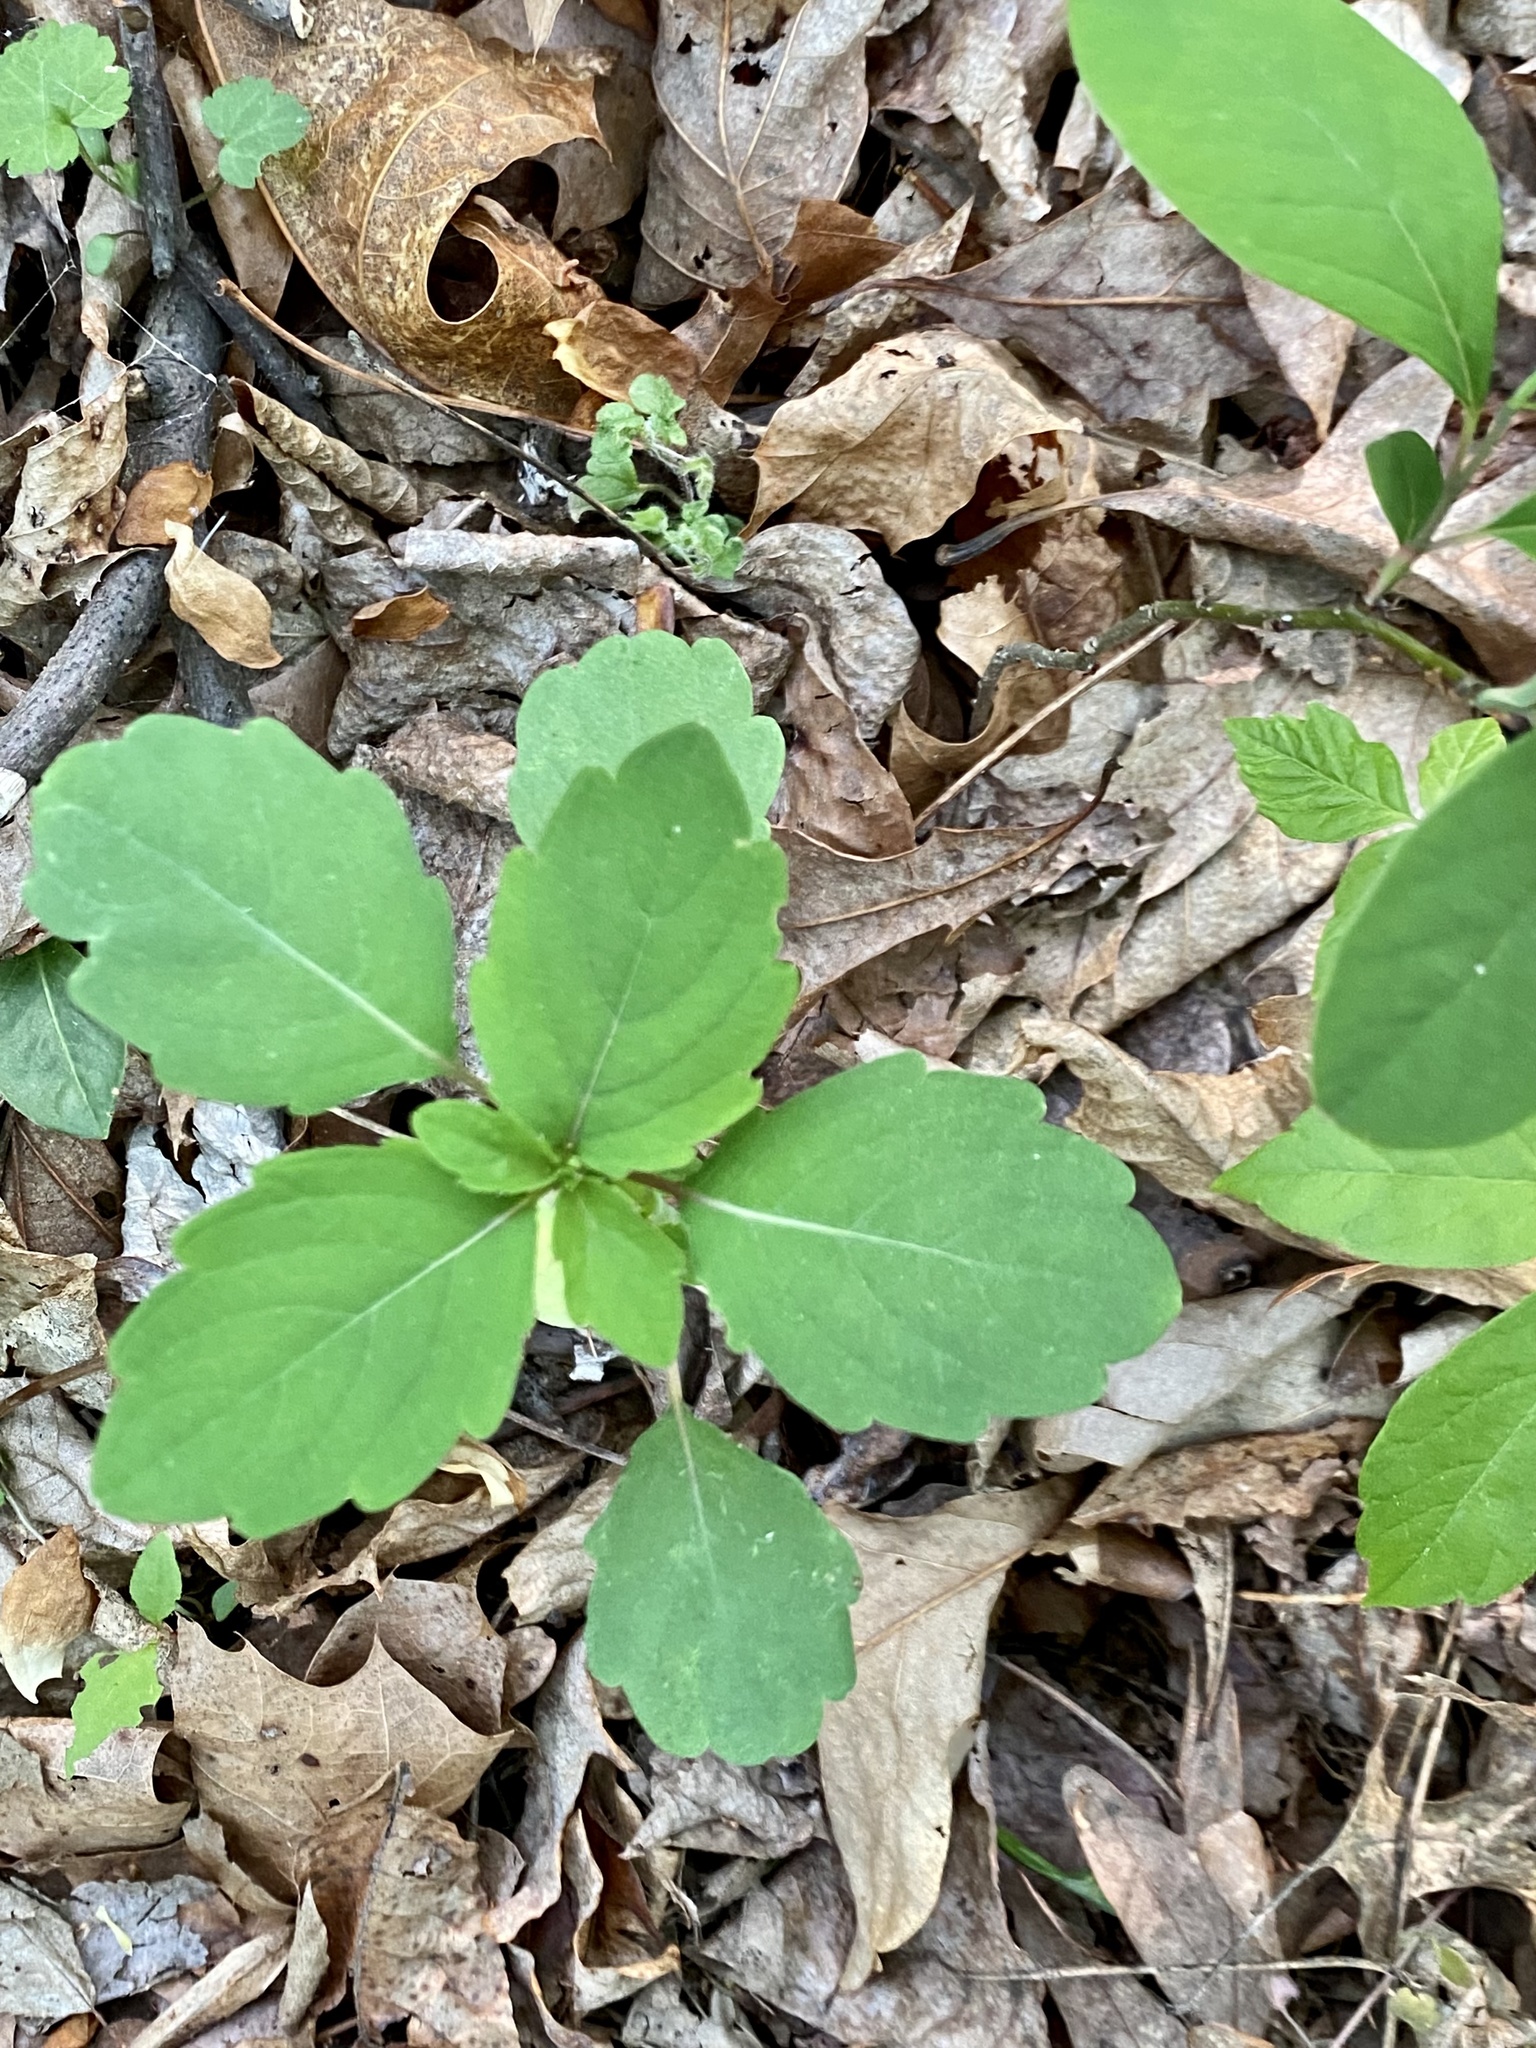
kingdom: Plantae
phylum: Tracheophyta
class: Magnoliopsida
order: Ericales
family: Balsaminaceae
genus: Impatiens
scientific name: Impatiens capensis
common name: Orange balsam
